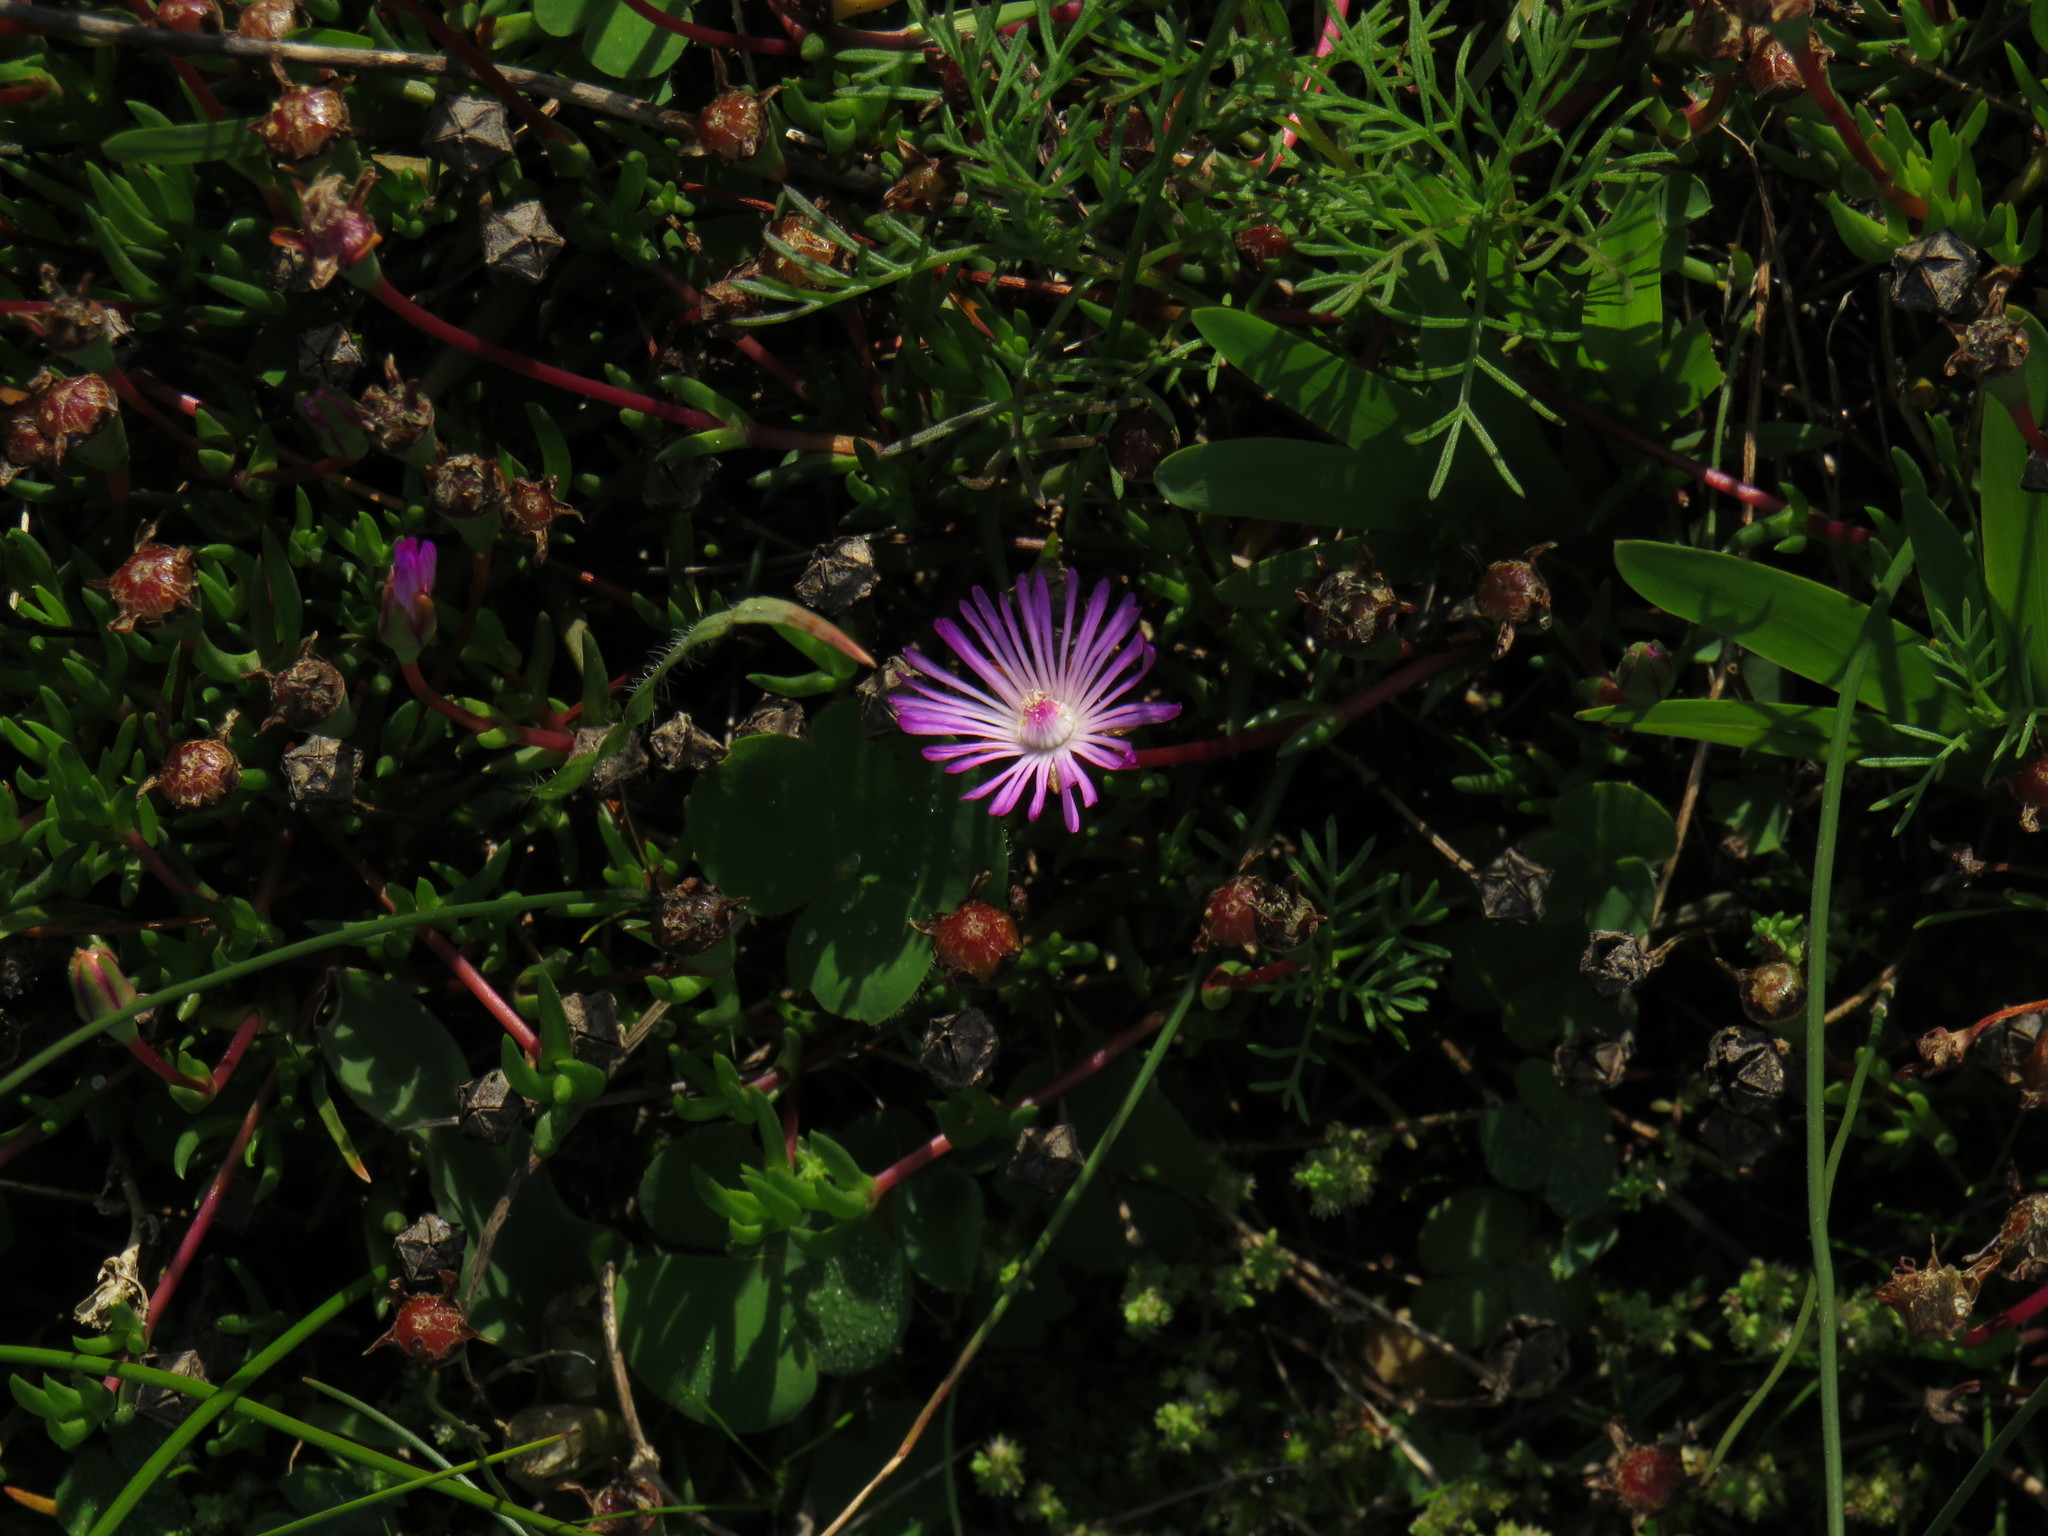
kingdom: Plantae
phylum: Tracheophyta
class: Magnoliopsida
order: Caryophyllales
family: Aizoaceae
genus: Lampranthus
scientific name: Lampranthus filicaulis
